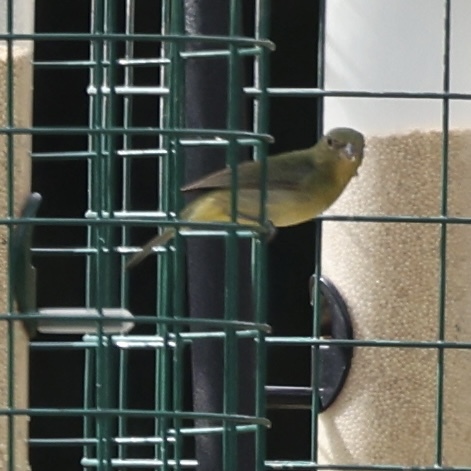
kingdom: Animalia
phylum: Chordata
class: Aves
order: Passeriformes
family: Cardinalidae
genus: Passerina
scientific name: Passerina ciris
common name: Painted bunting
